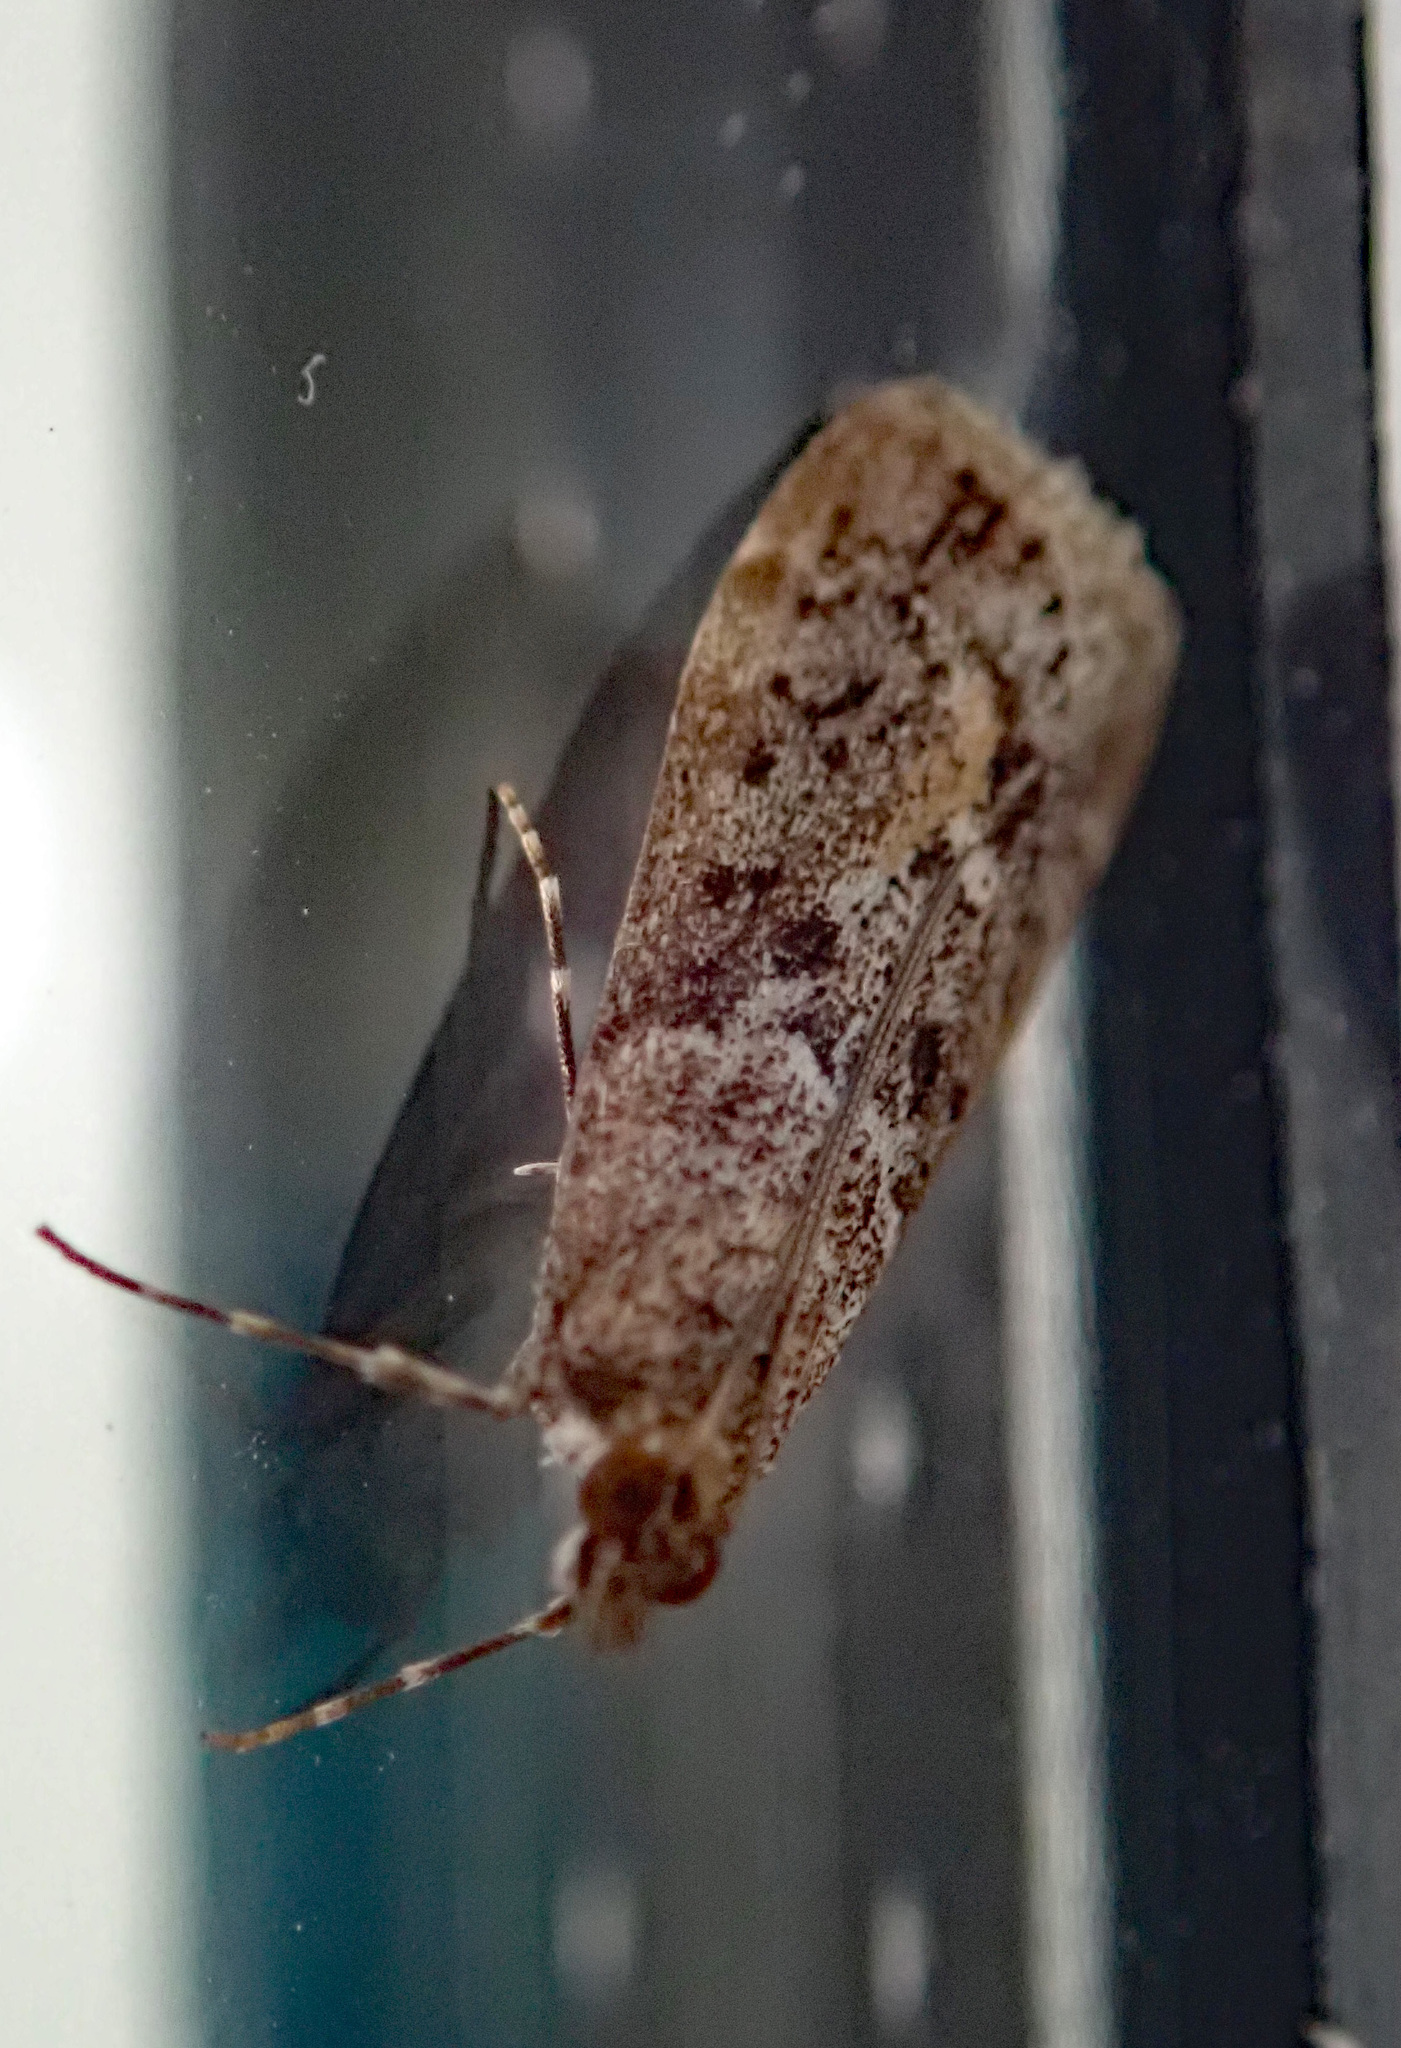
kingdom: Animalia
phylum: Arthropoda
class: Insecta
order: Lepidoptera
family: Crambidae
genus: Eudonia
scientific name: Eudonia submarginalis
